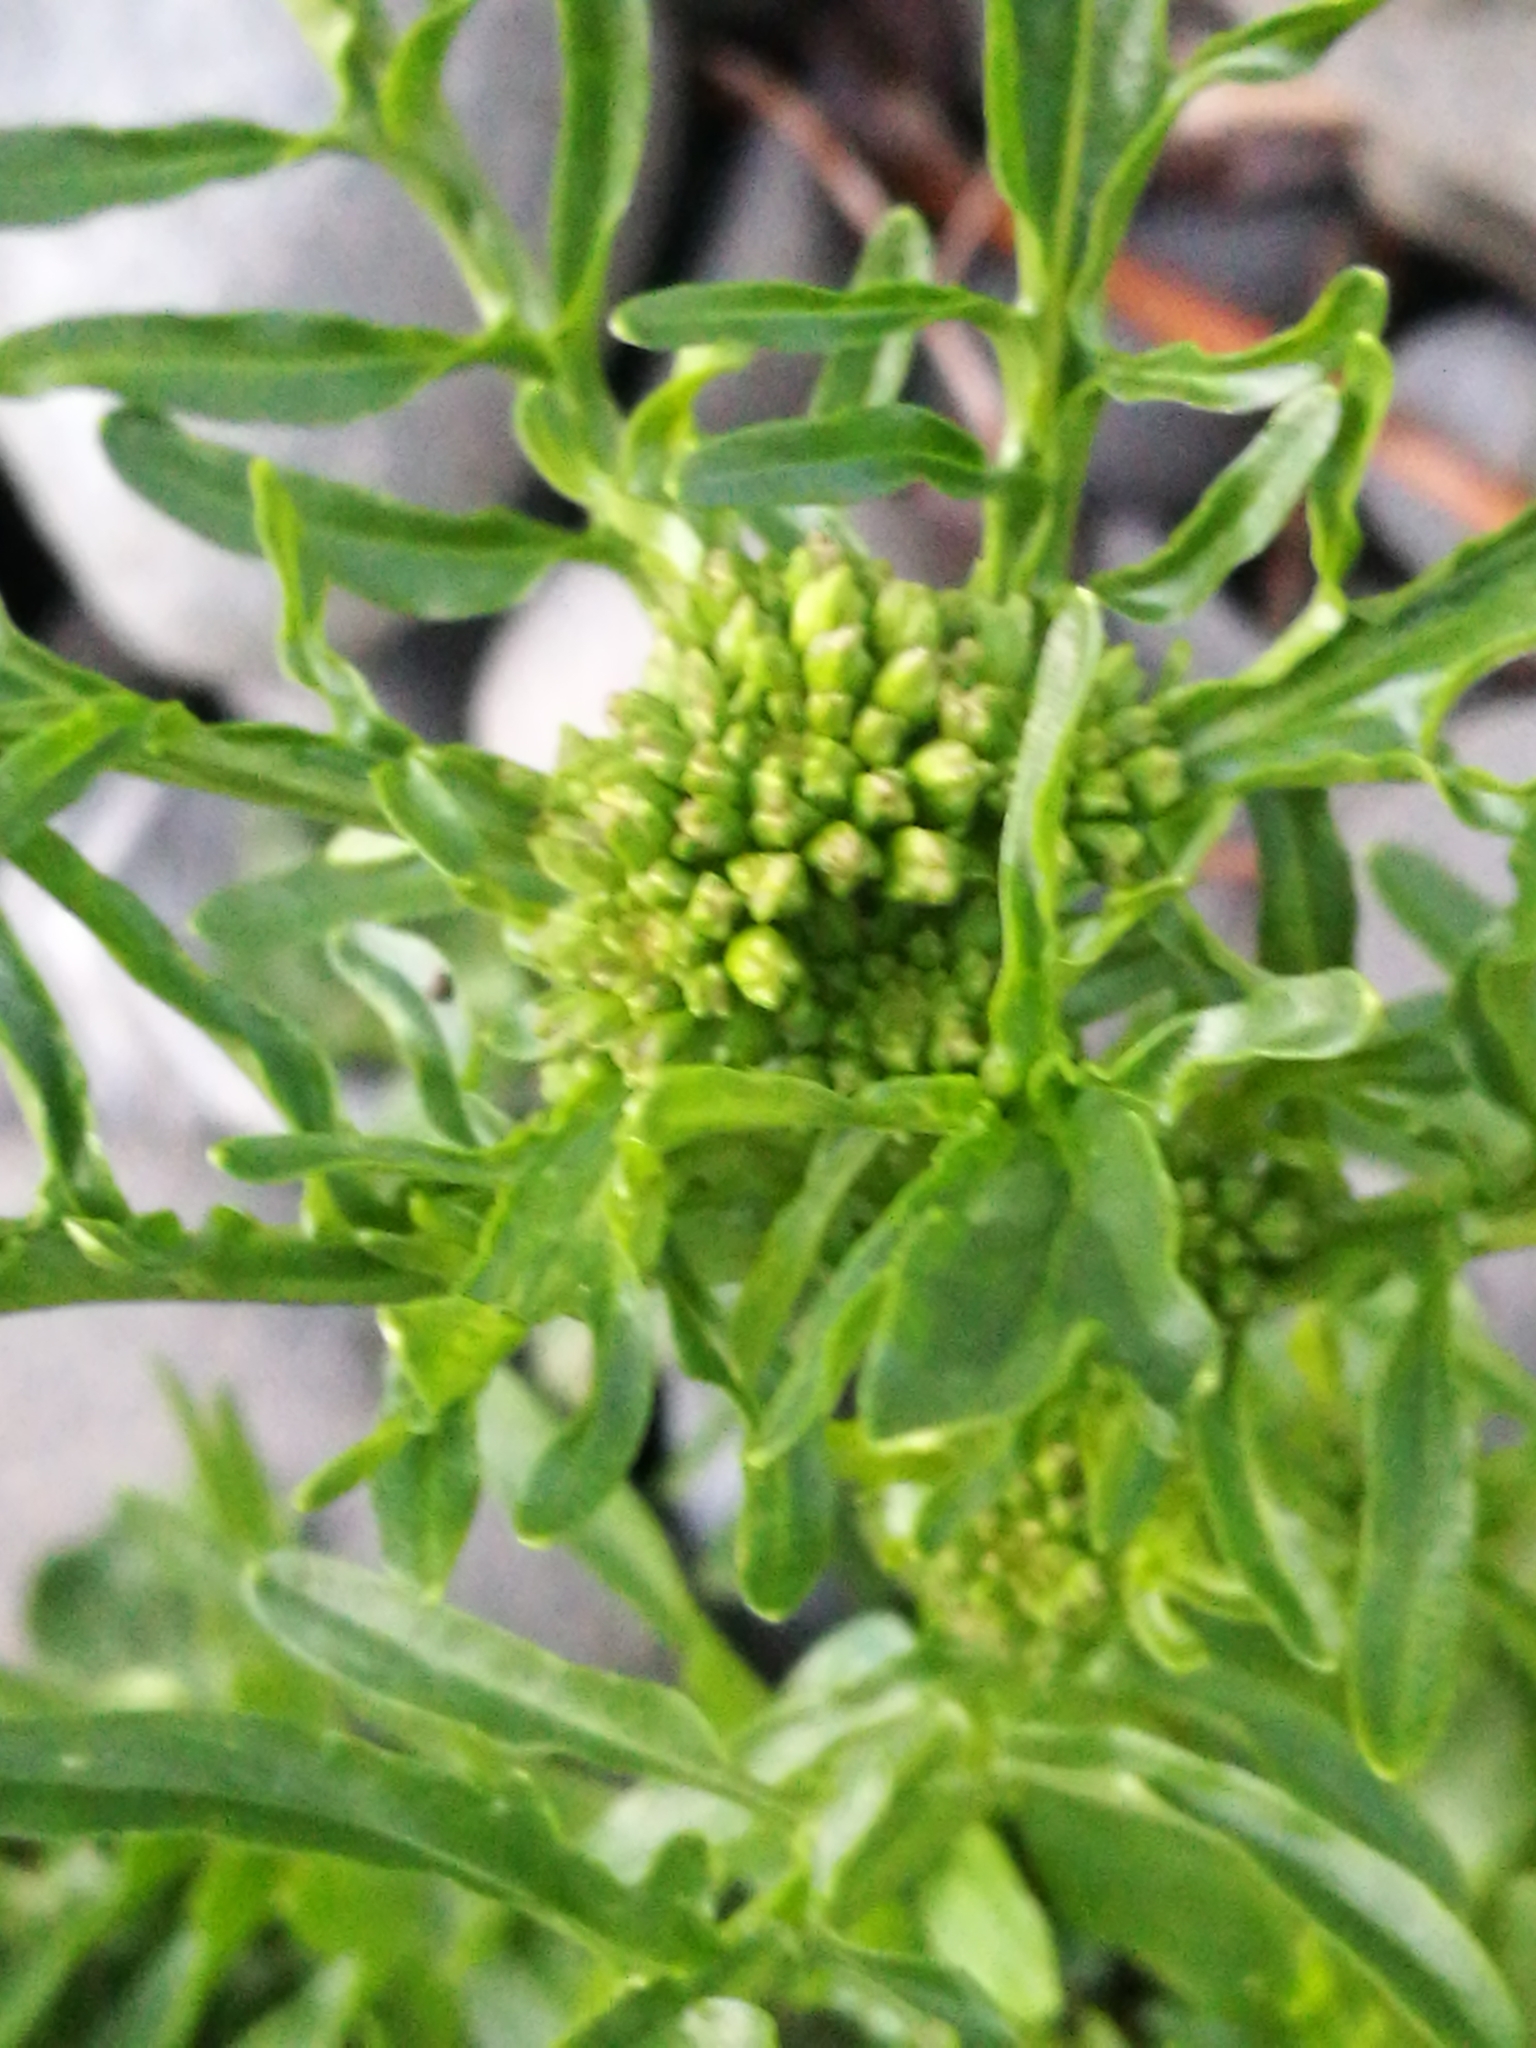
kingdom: Plantae
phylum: Tracheophyta
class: Magnoliopsida
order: Brassicales
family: Brassicaceae
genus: Rorippa
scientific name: Rorippa palustris
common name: Marsh yellow-cress
